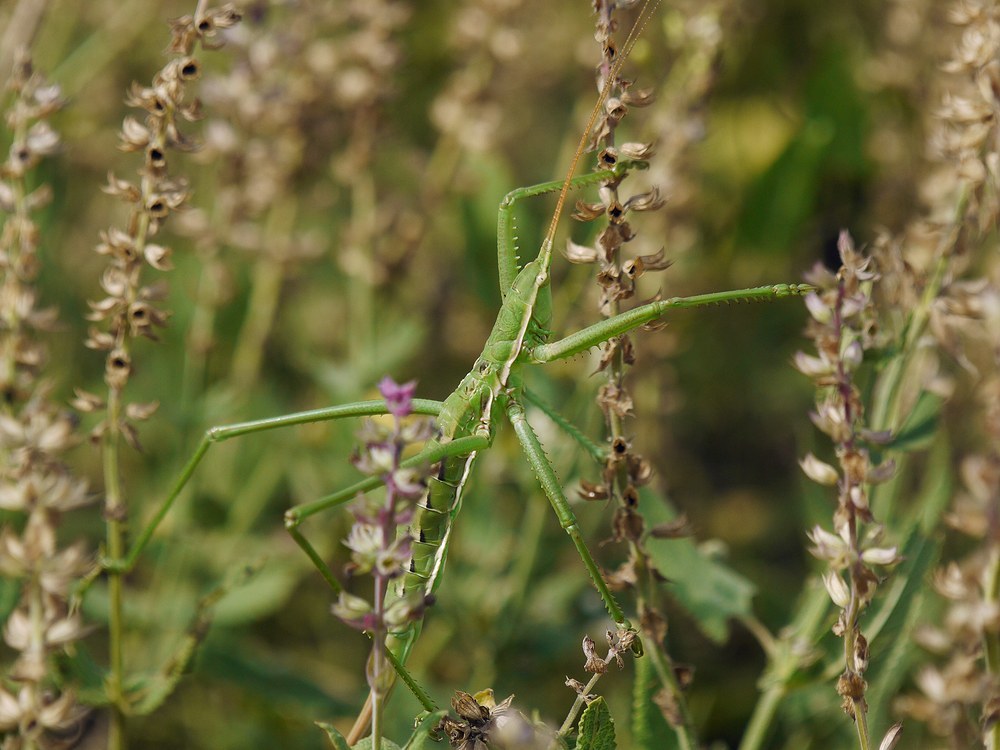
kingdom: Animalia
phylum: Arthropoda
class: Insecta
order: Orthoptera
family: Tettigoniidae
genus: Saga
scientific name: Saga pedo
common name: Common predatory bush-cricket
